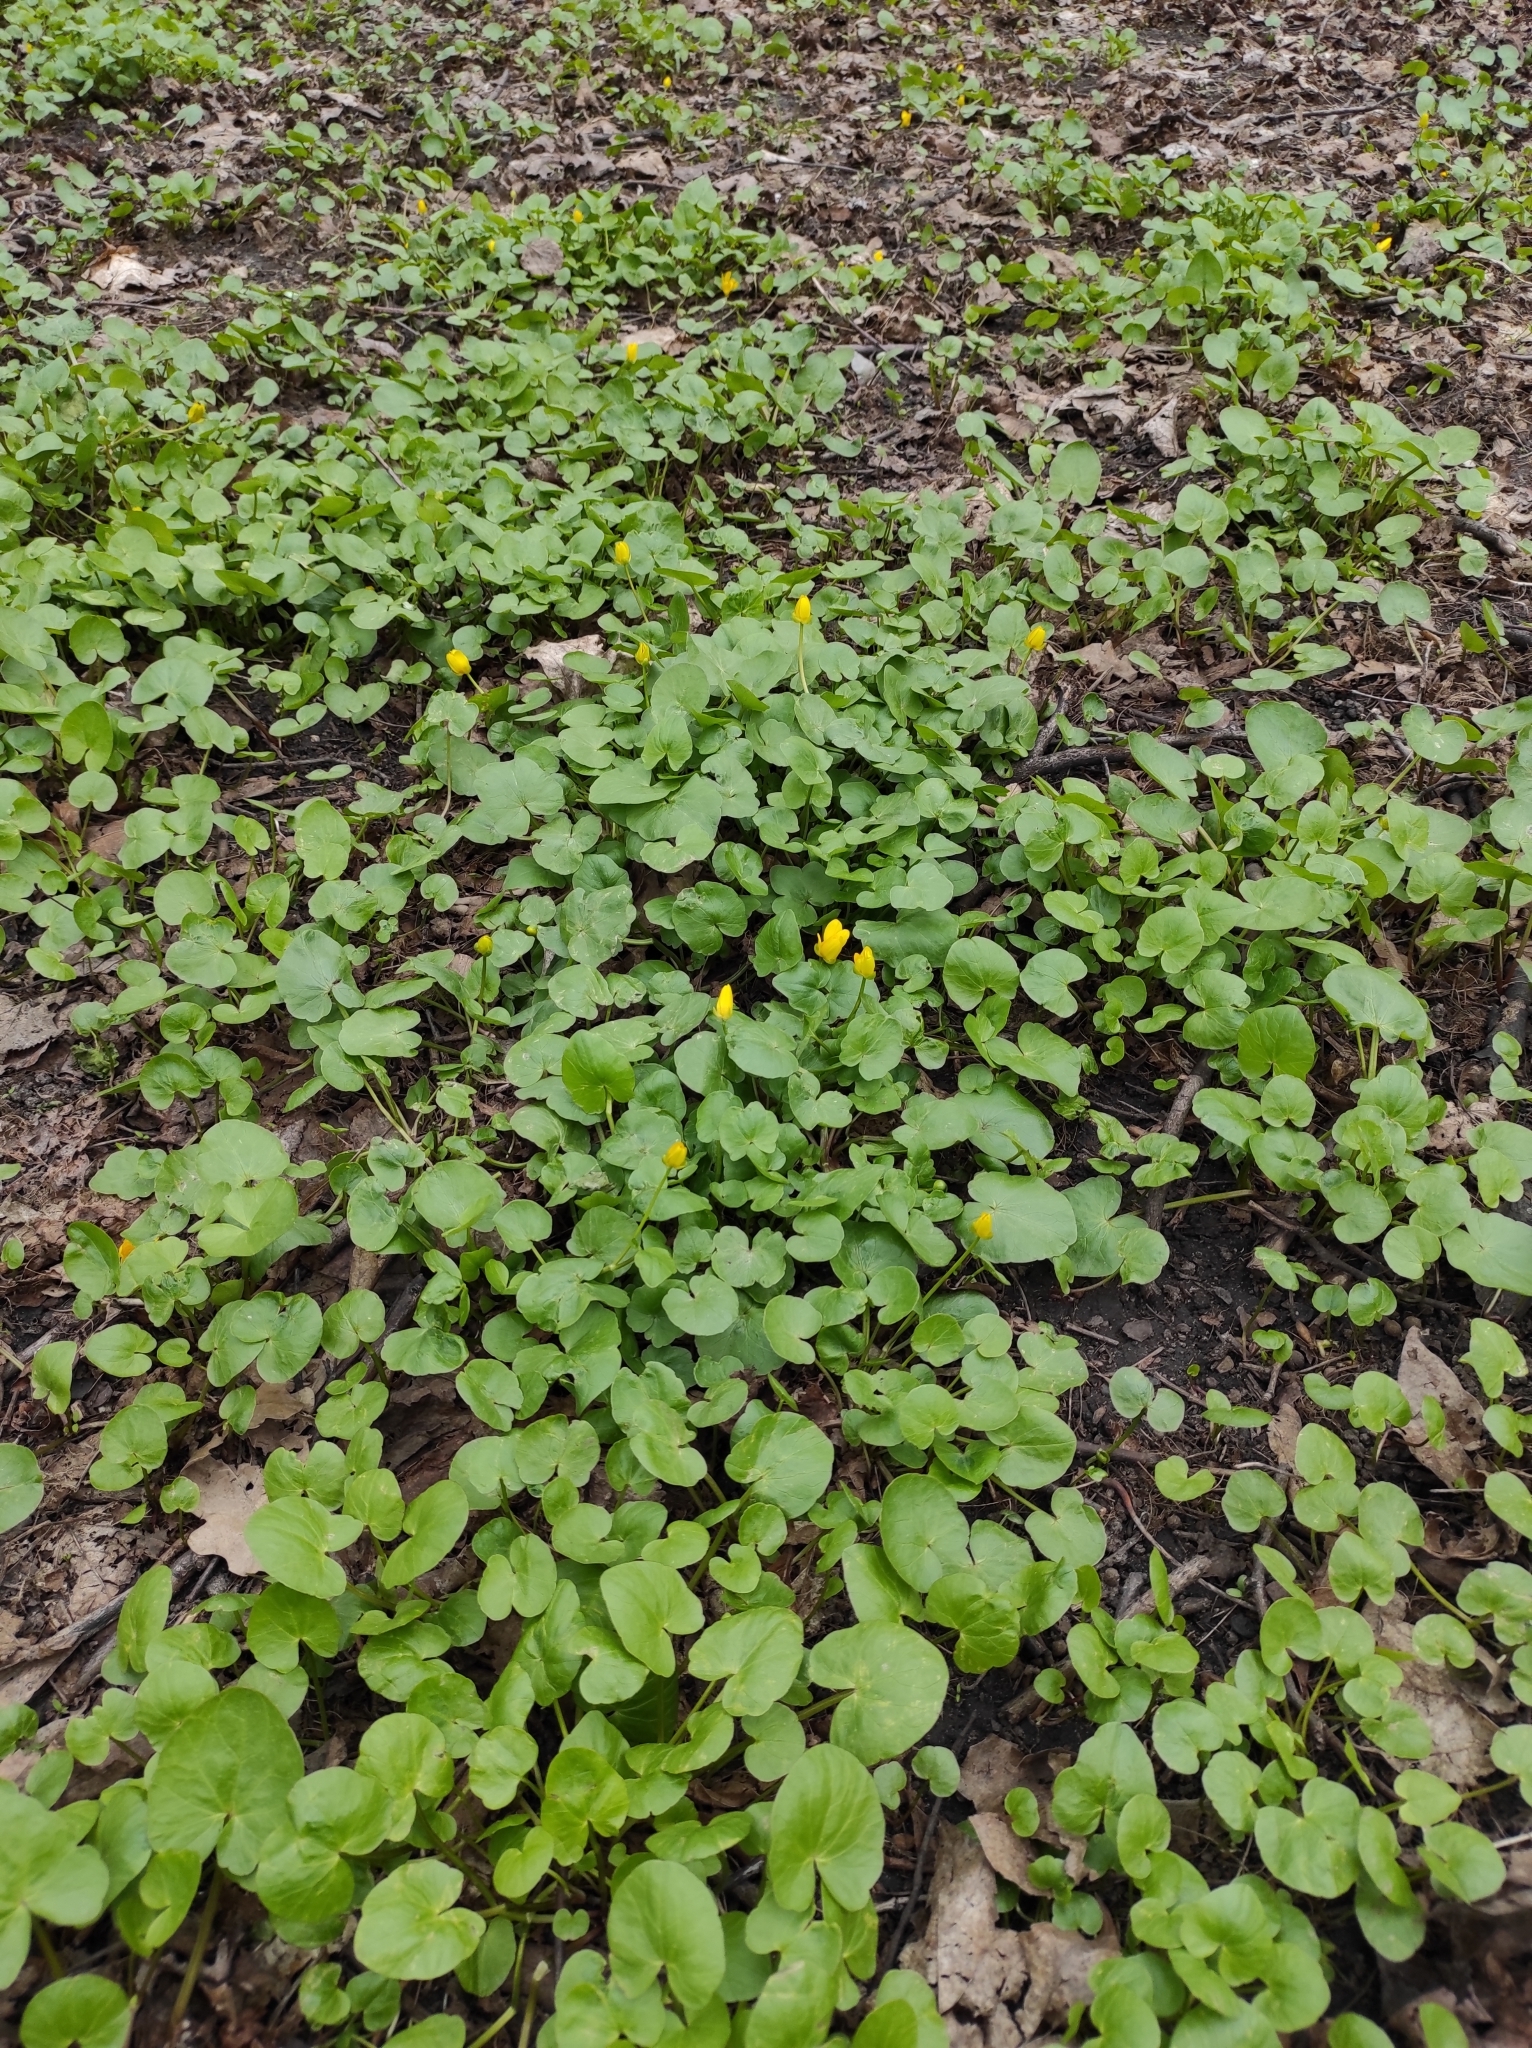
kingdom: Plantae
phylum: Tracheophyta
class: Magnoliopsida
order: Ranunculales
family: Ranunculaceae
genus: Ficaria
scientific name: Ficaria verna
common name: Lesser celandine
